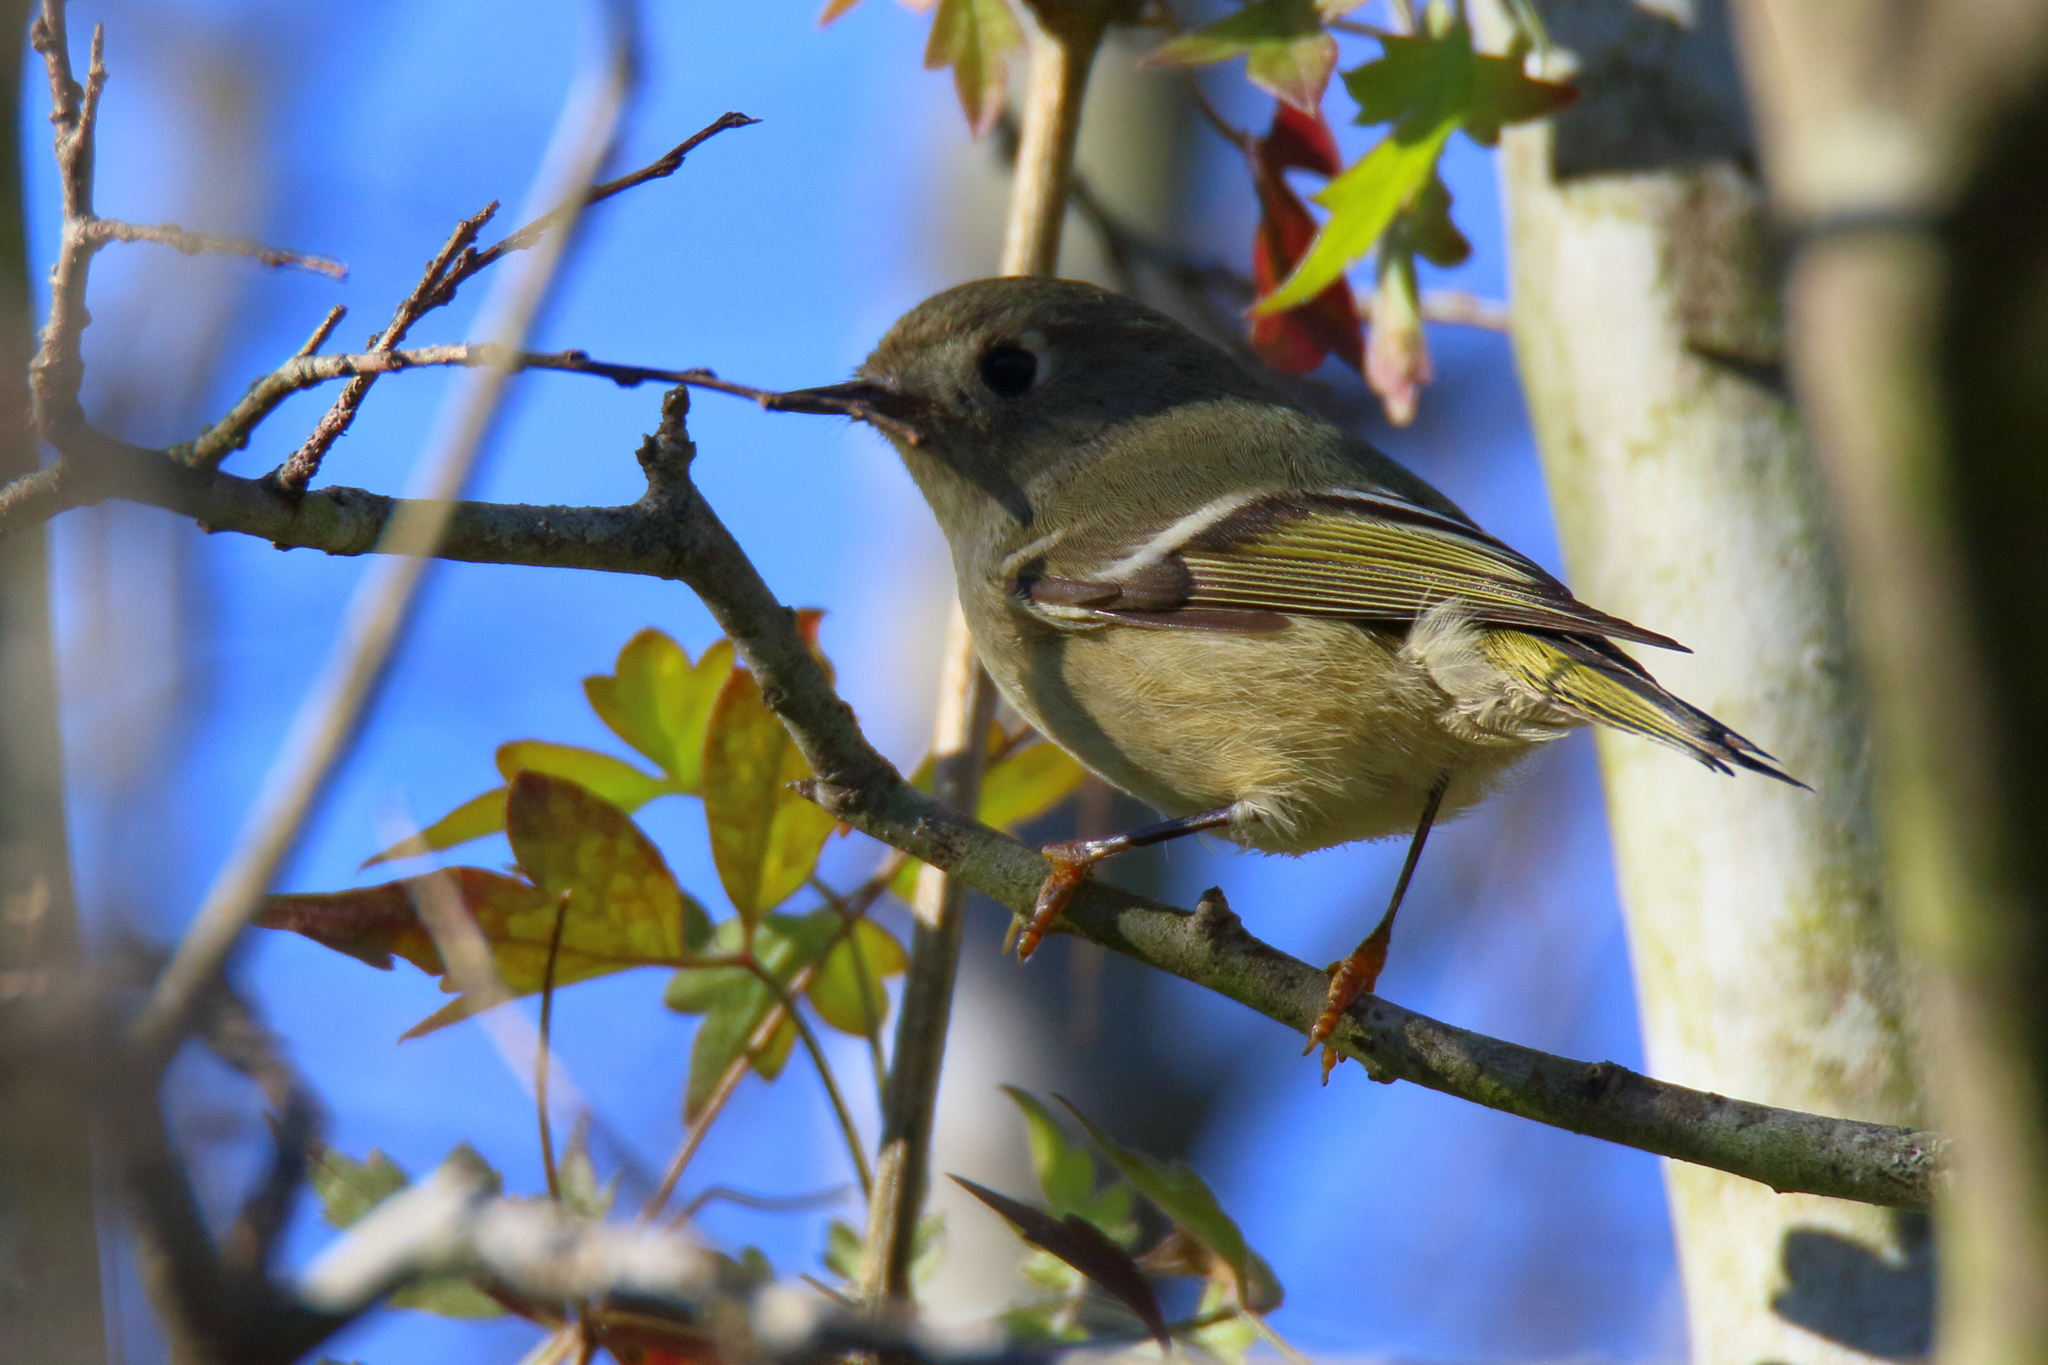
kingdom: Animalia
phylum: Chordata
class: Aves
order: Passeriformes
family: Regulidae
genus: Regulus
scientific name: Regulus calendula
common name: Ruby-crowned kinglet
